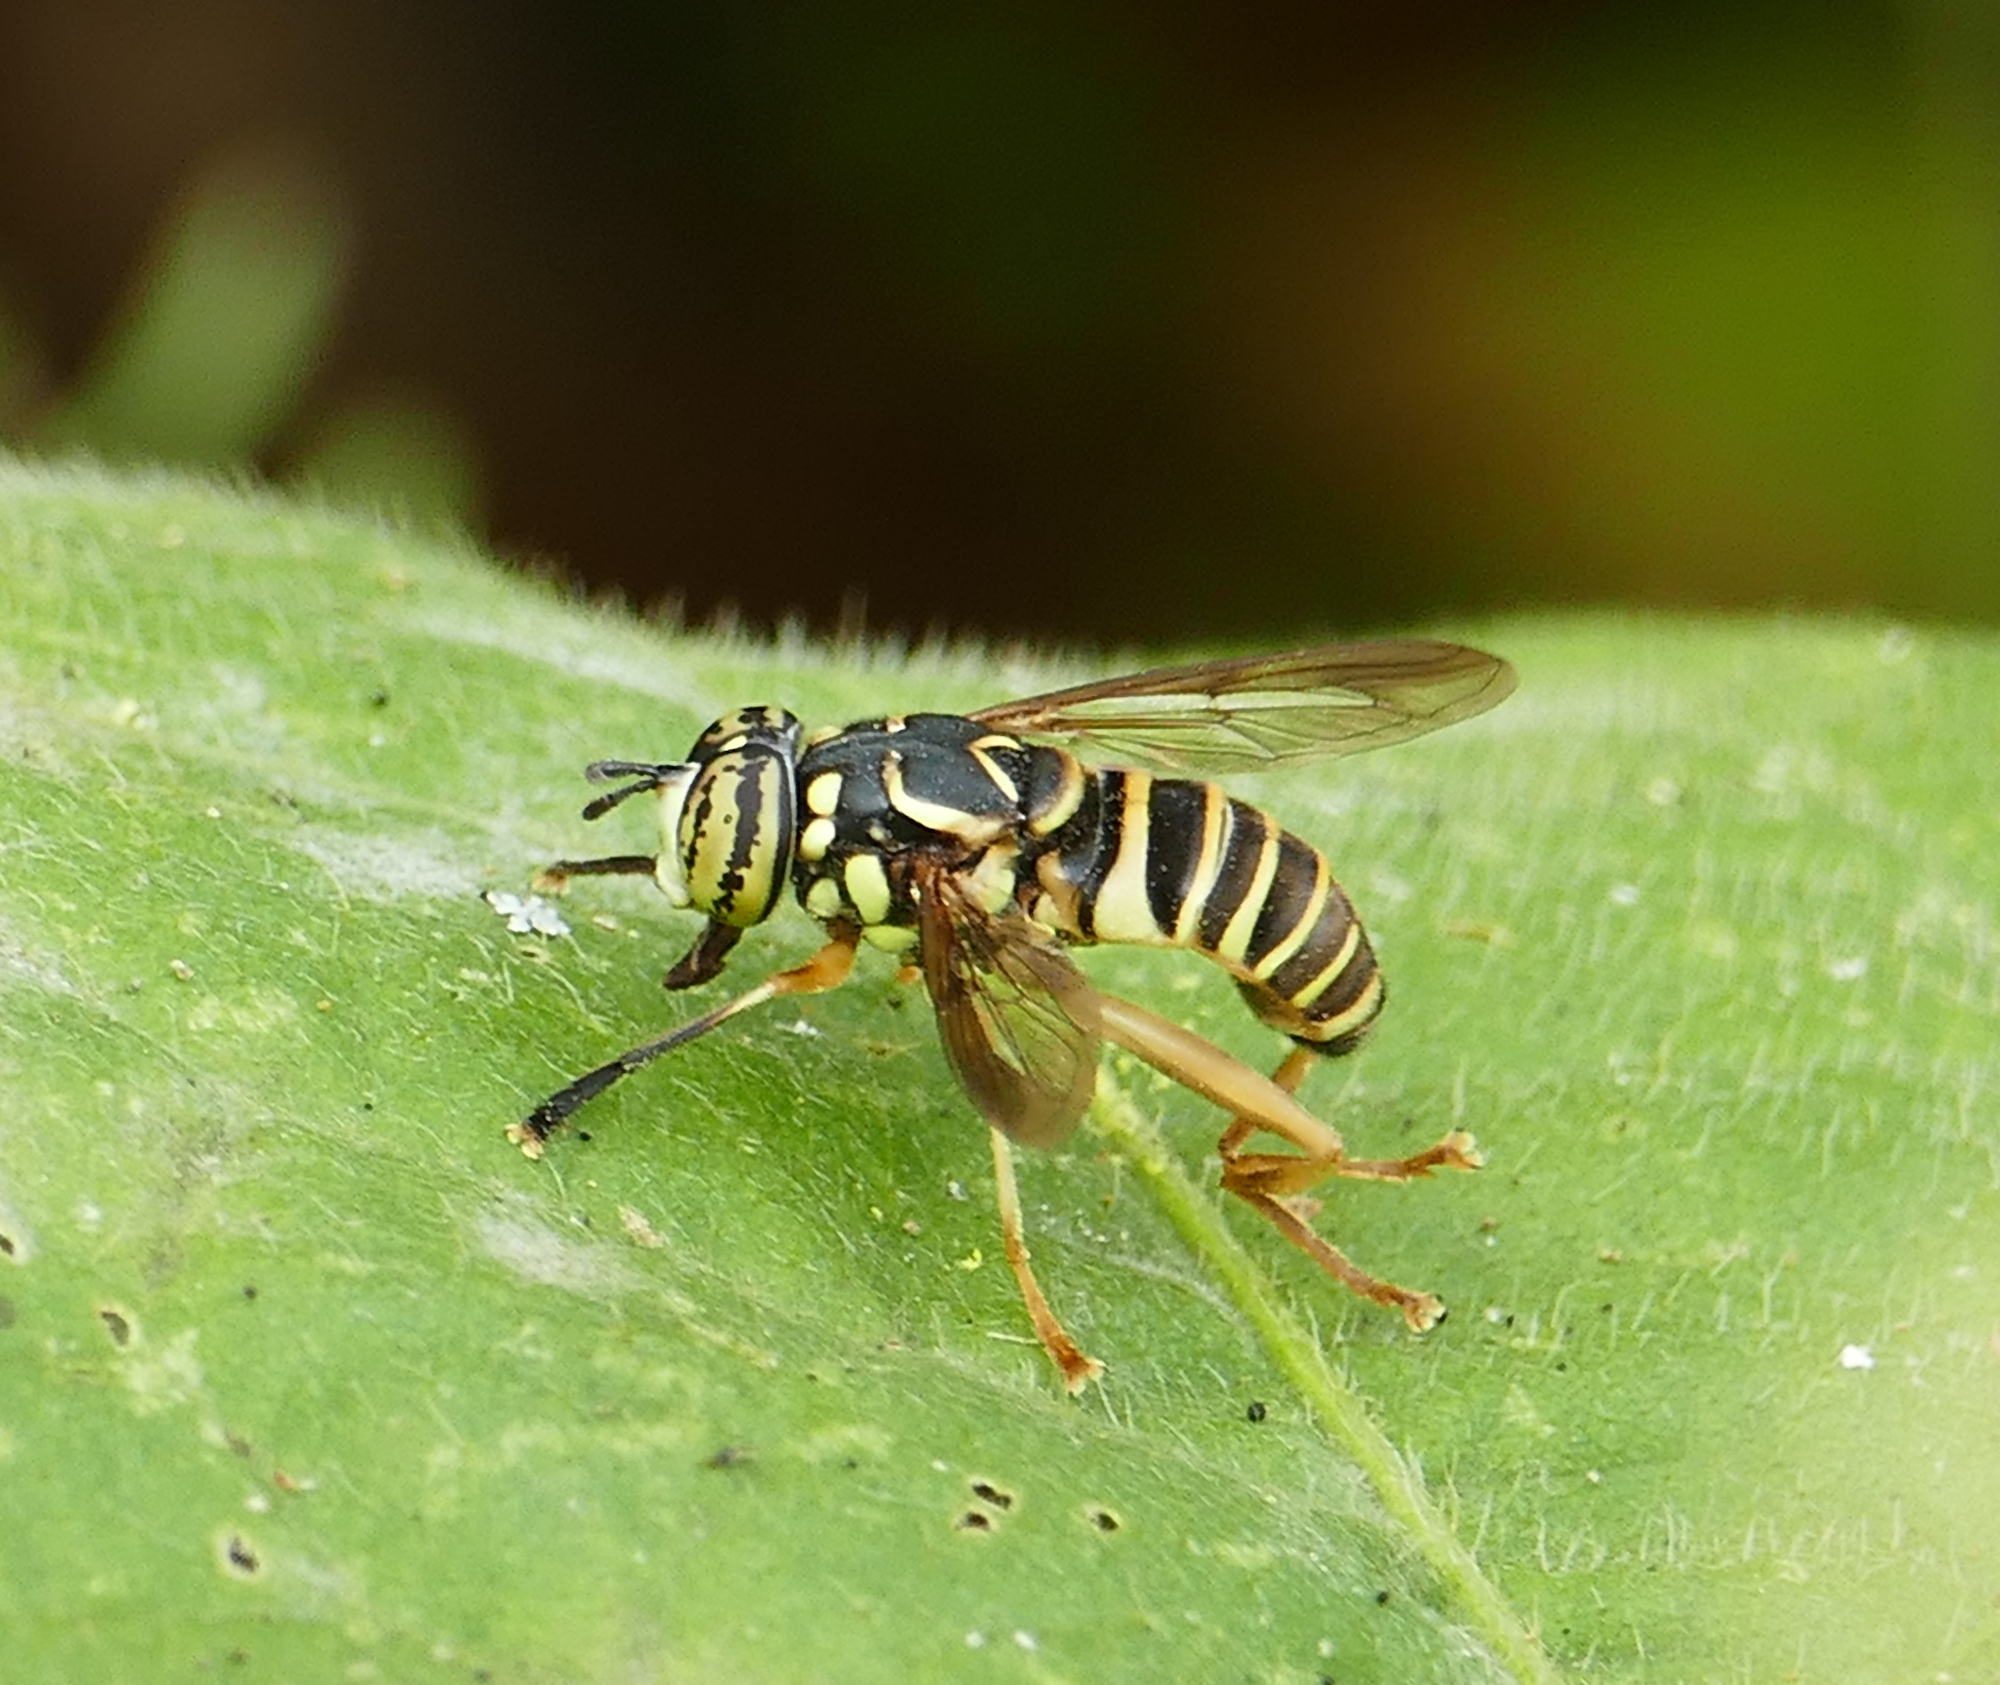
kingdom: Animalia
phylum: Arthropoda
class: Insecta
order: Diptera
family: Syrphidae
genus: Spilomyia
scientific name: Spilomyia longicornis
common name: Eastern hornet fly
